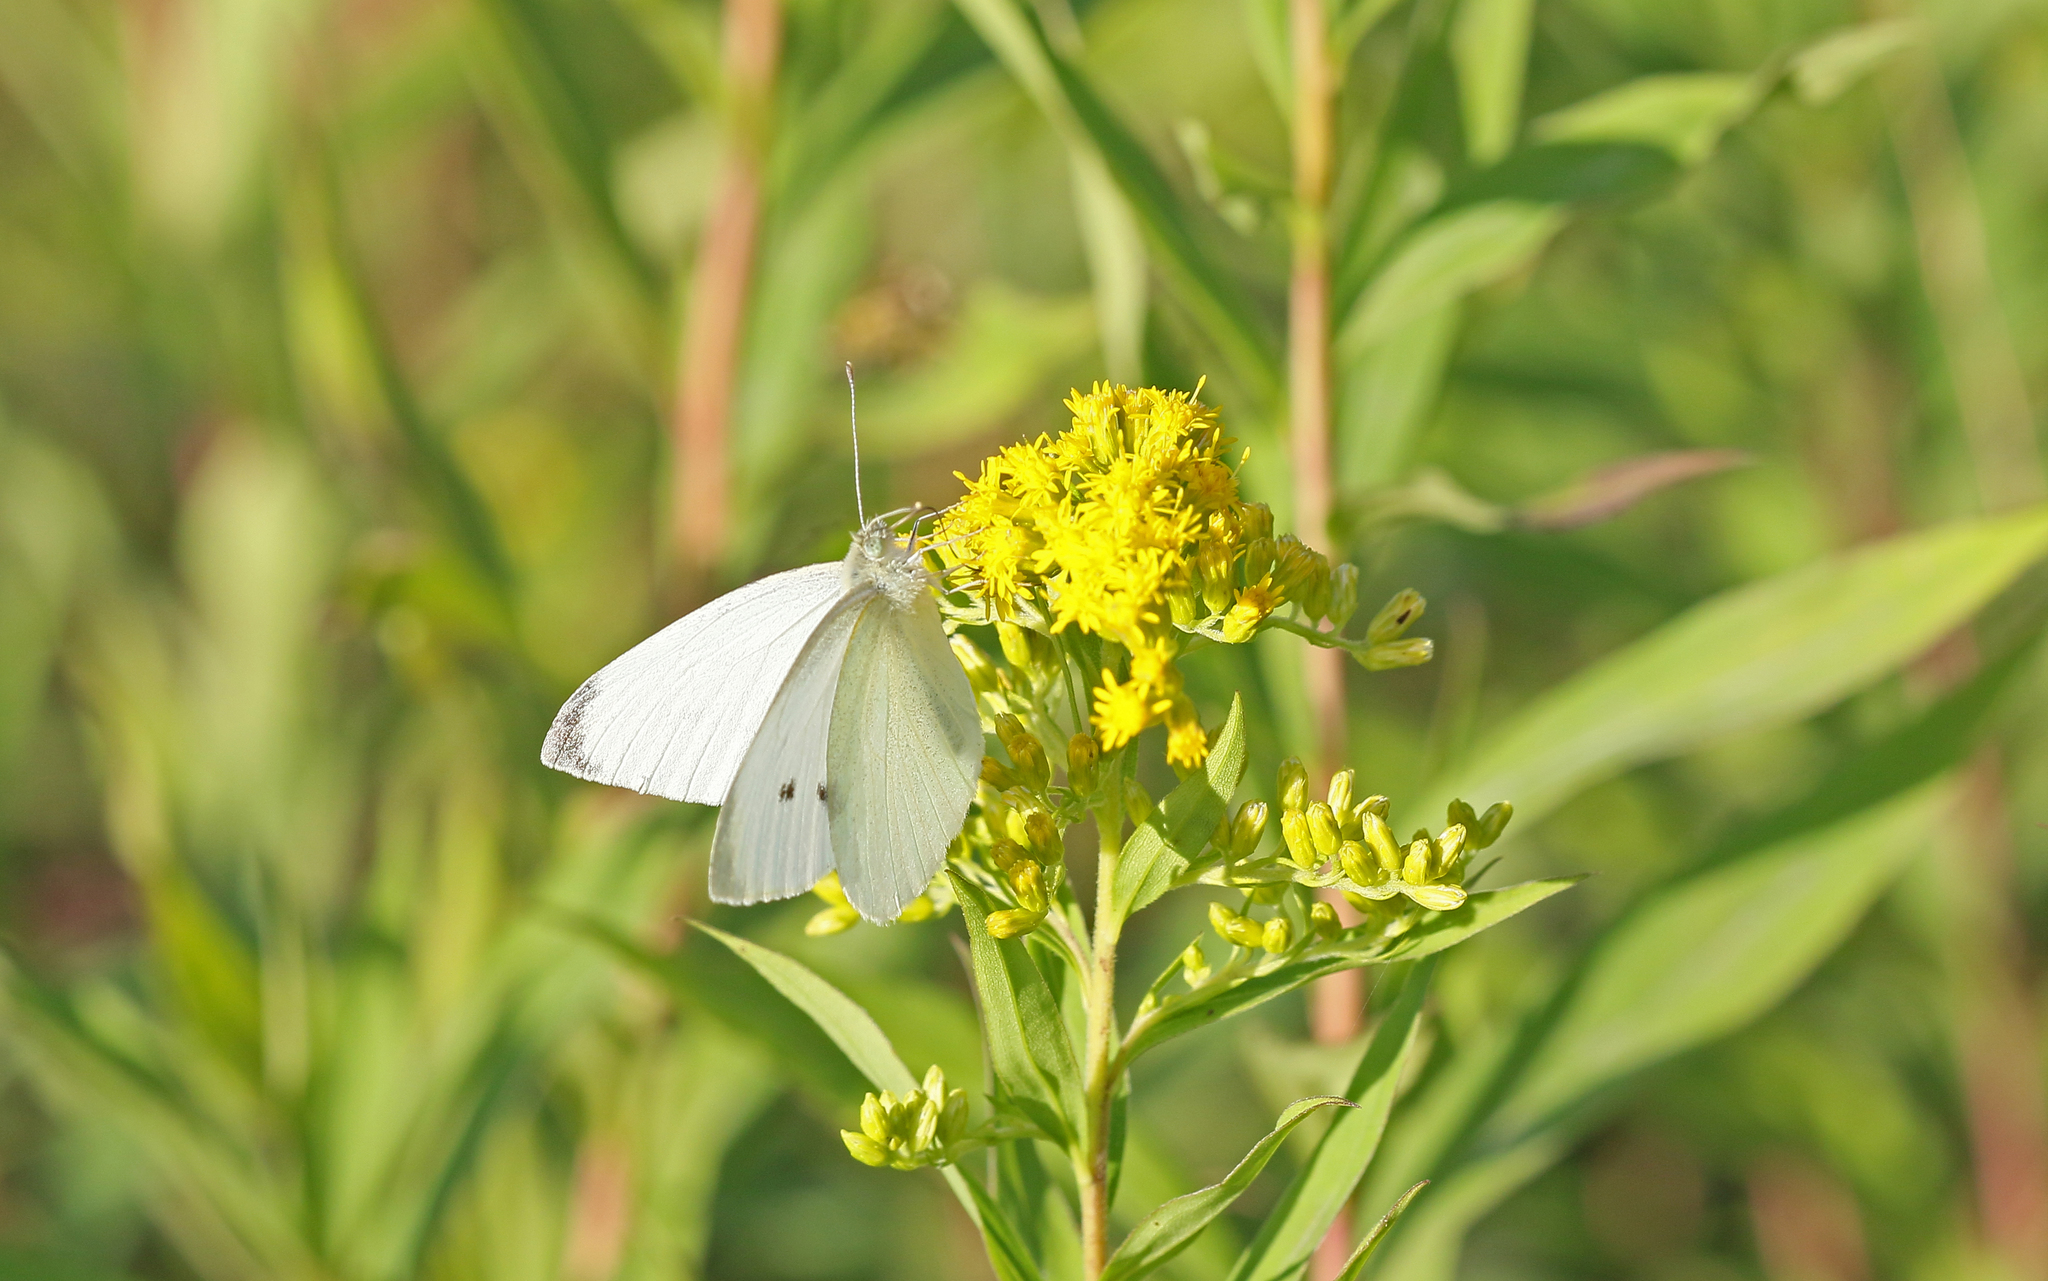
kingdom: Animalia
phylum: Arthropoda
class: Insecta
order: Lepidoptera
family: Pieridae
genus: Pieris
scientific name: Pieris rapae
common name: Small white
